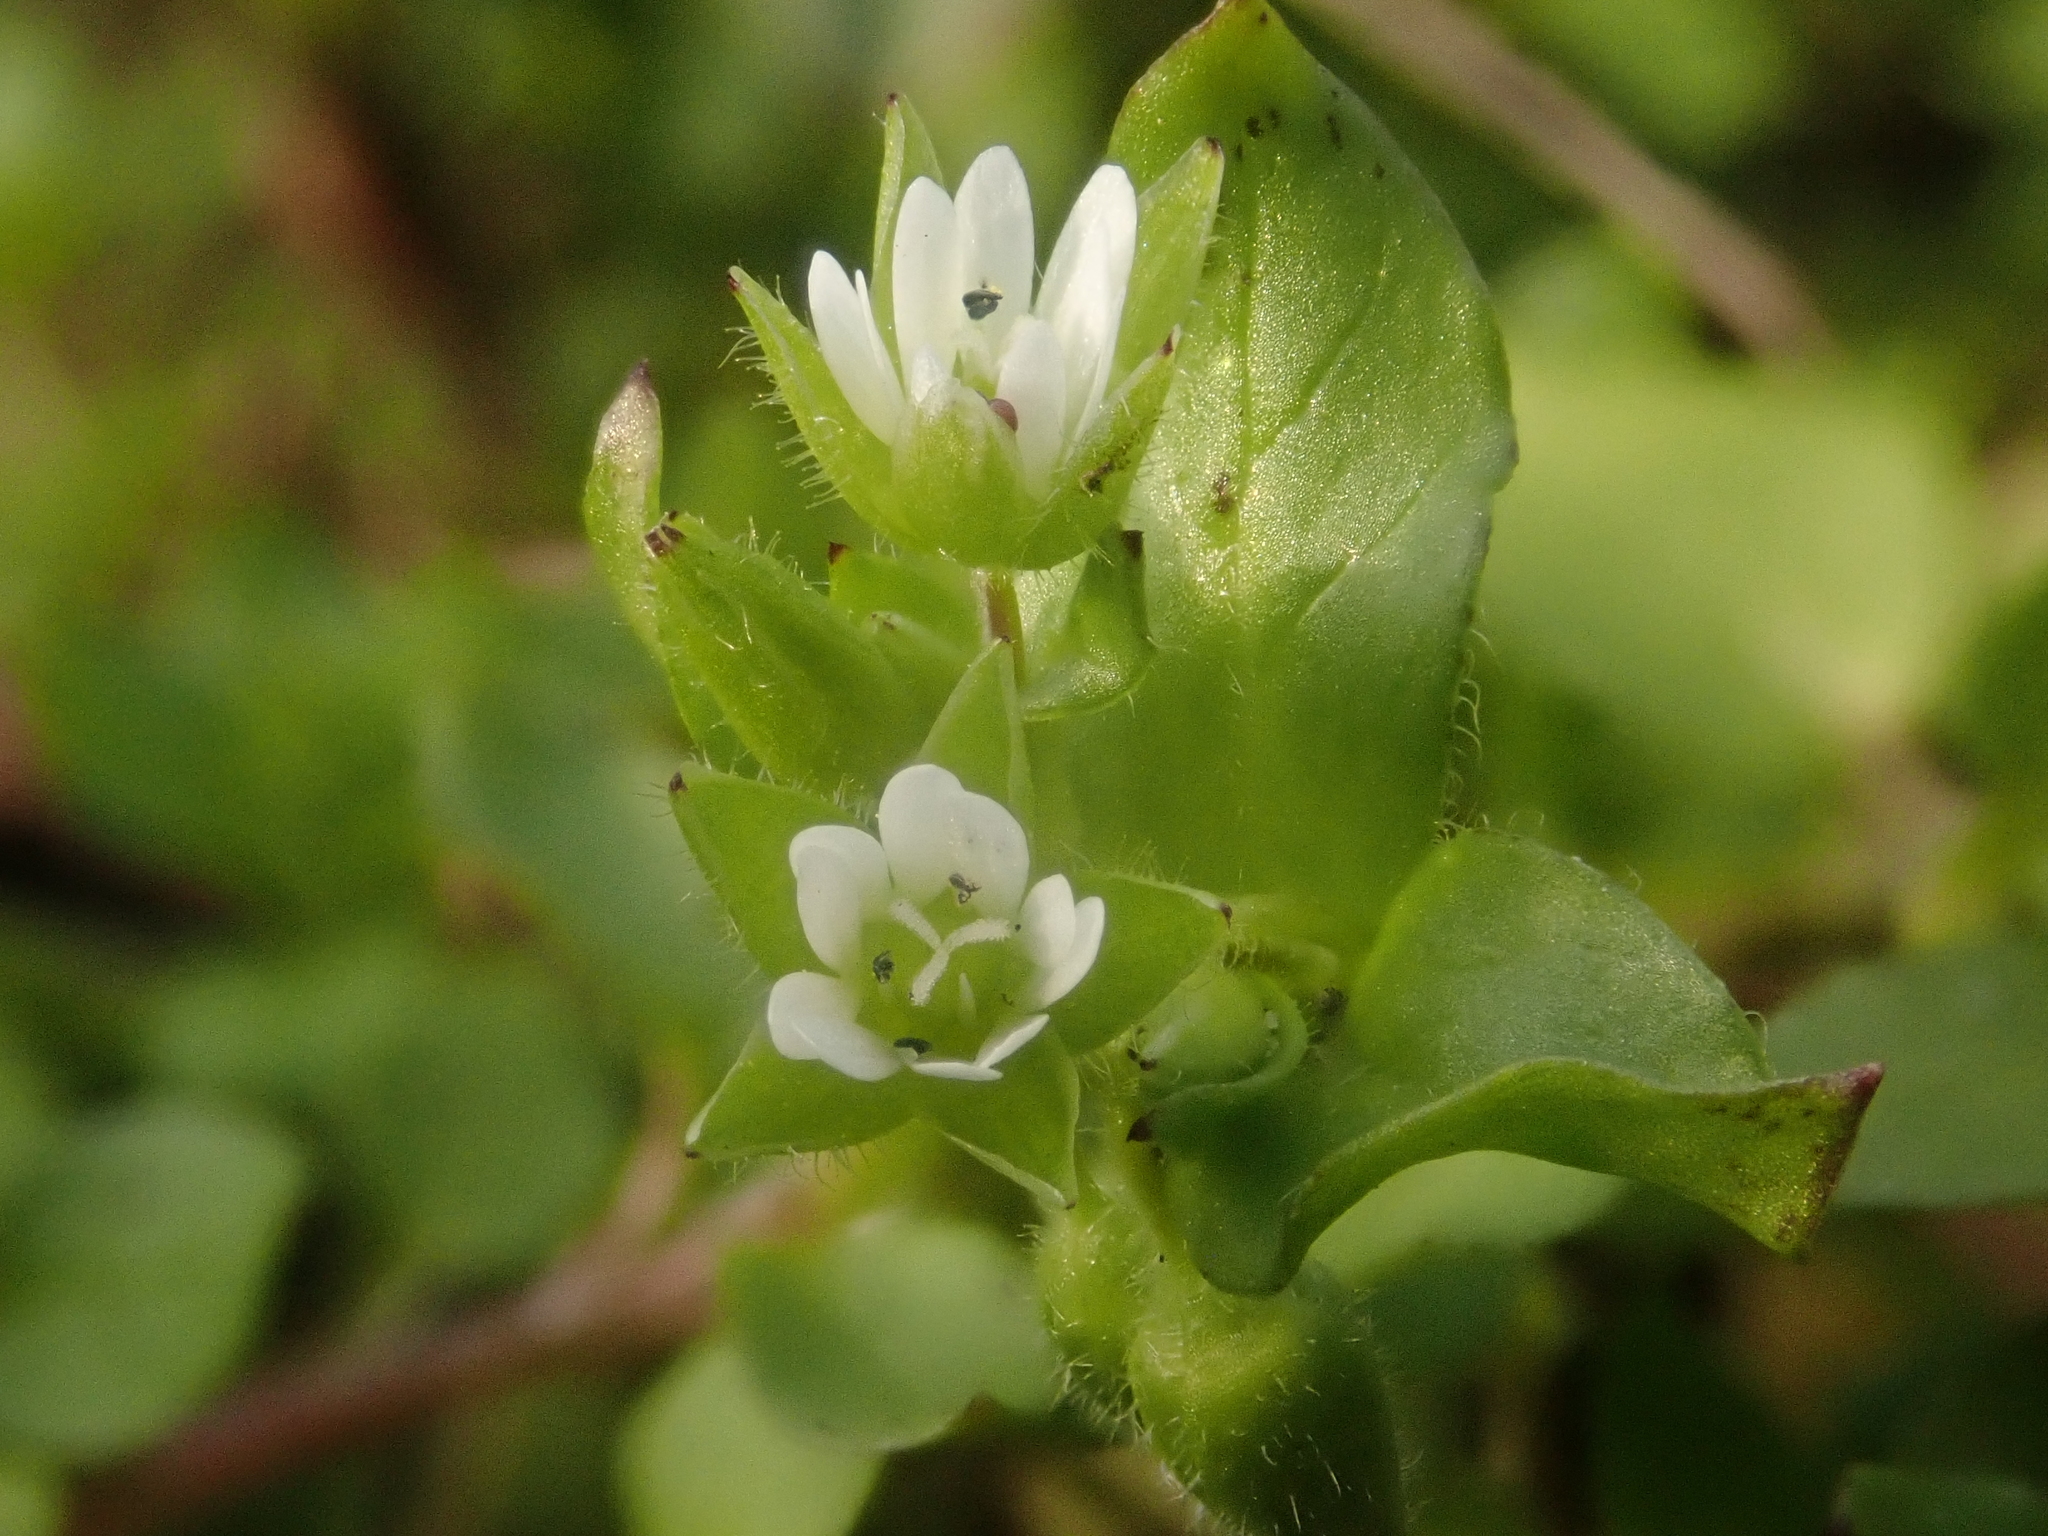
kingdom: Plantae
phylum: Tracheophyta
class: Magnoliopsida
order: Caryophyllales
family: Caryophyllaceae
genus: Stellaria
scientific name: Stellaria media
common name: Common chickweed
